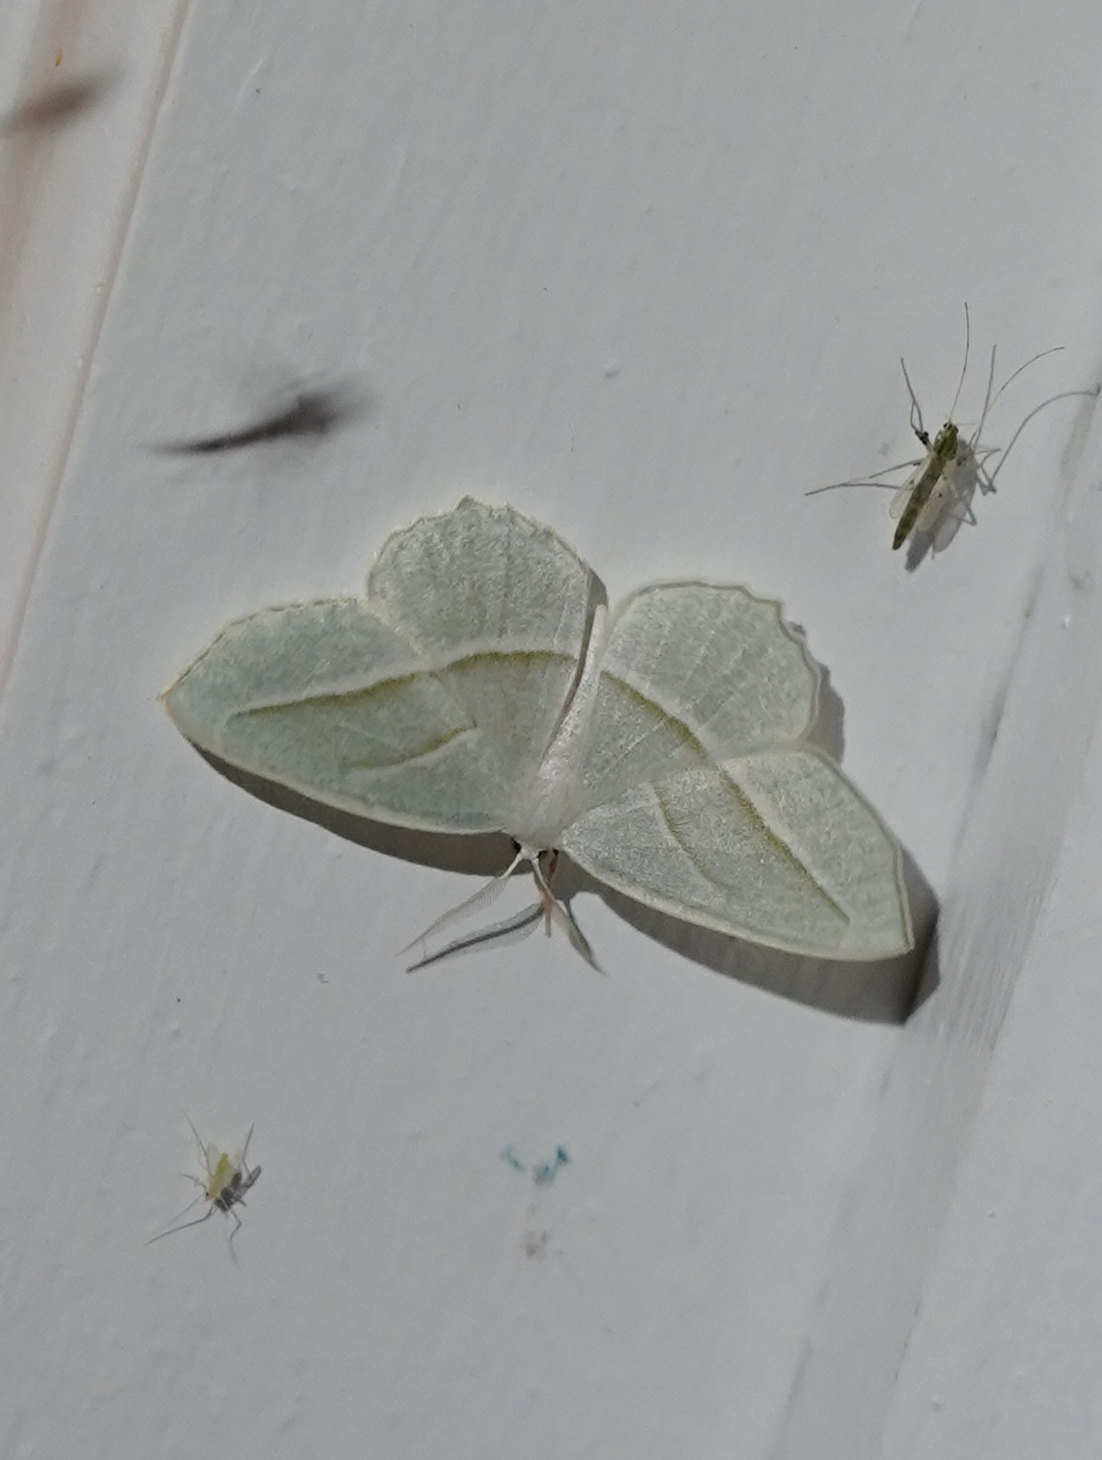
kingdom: Animalia
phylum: Arthropoda
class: Insecta
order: Lepidoptera
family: Geometridae
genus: Campaea
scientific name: Campaea perlata
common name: Fringed looper
